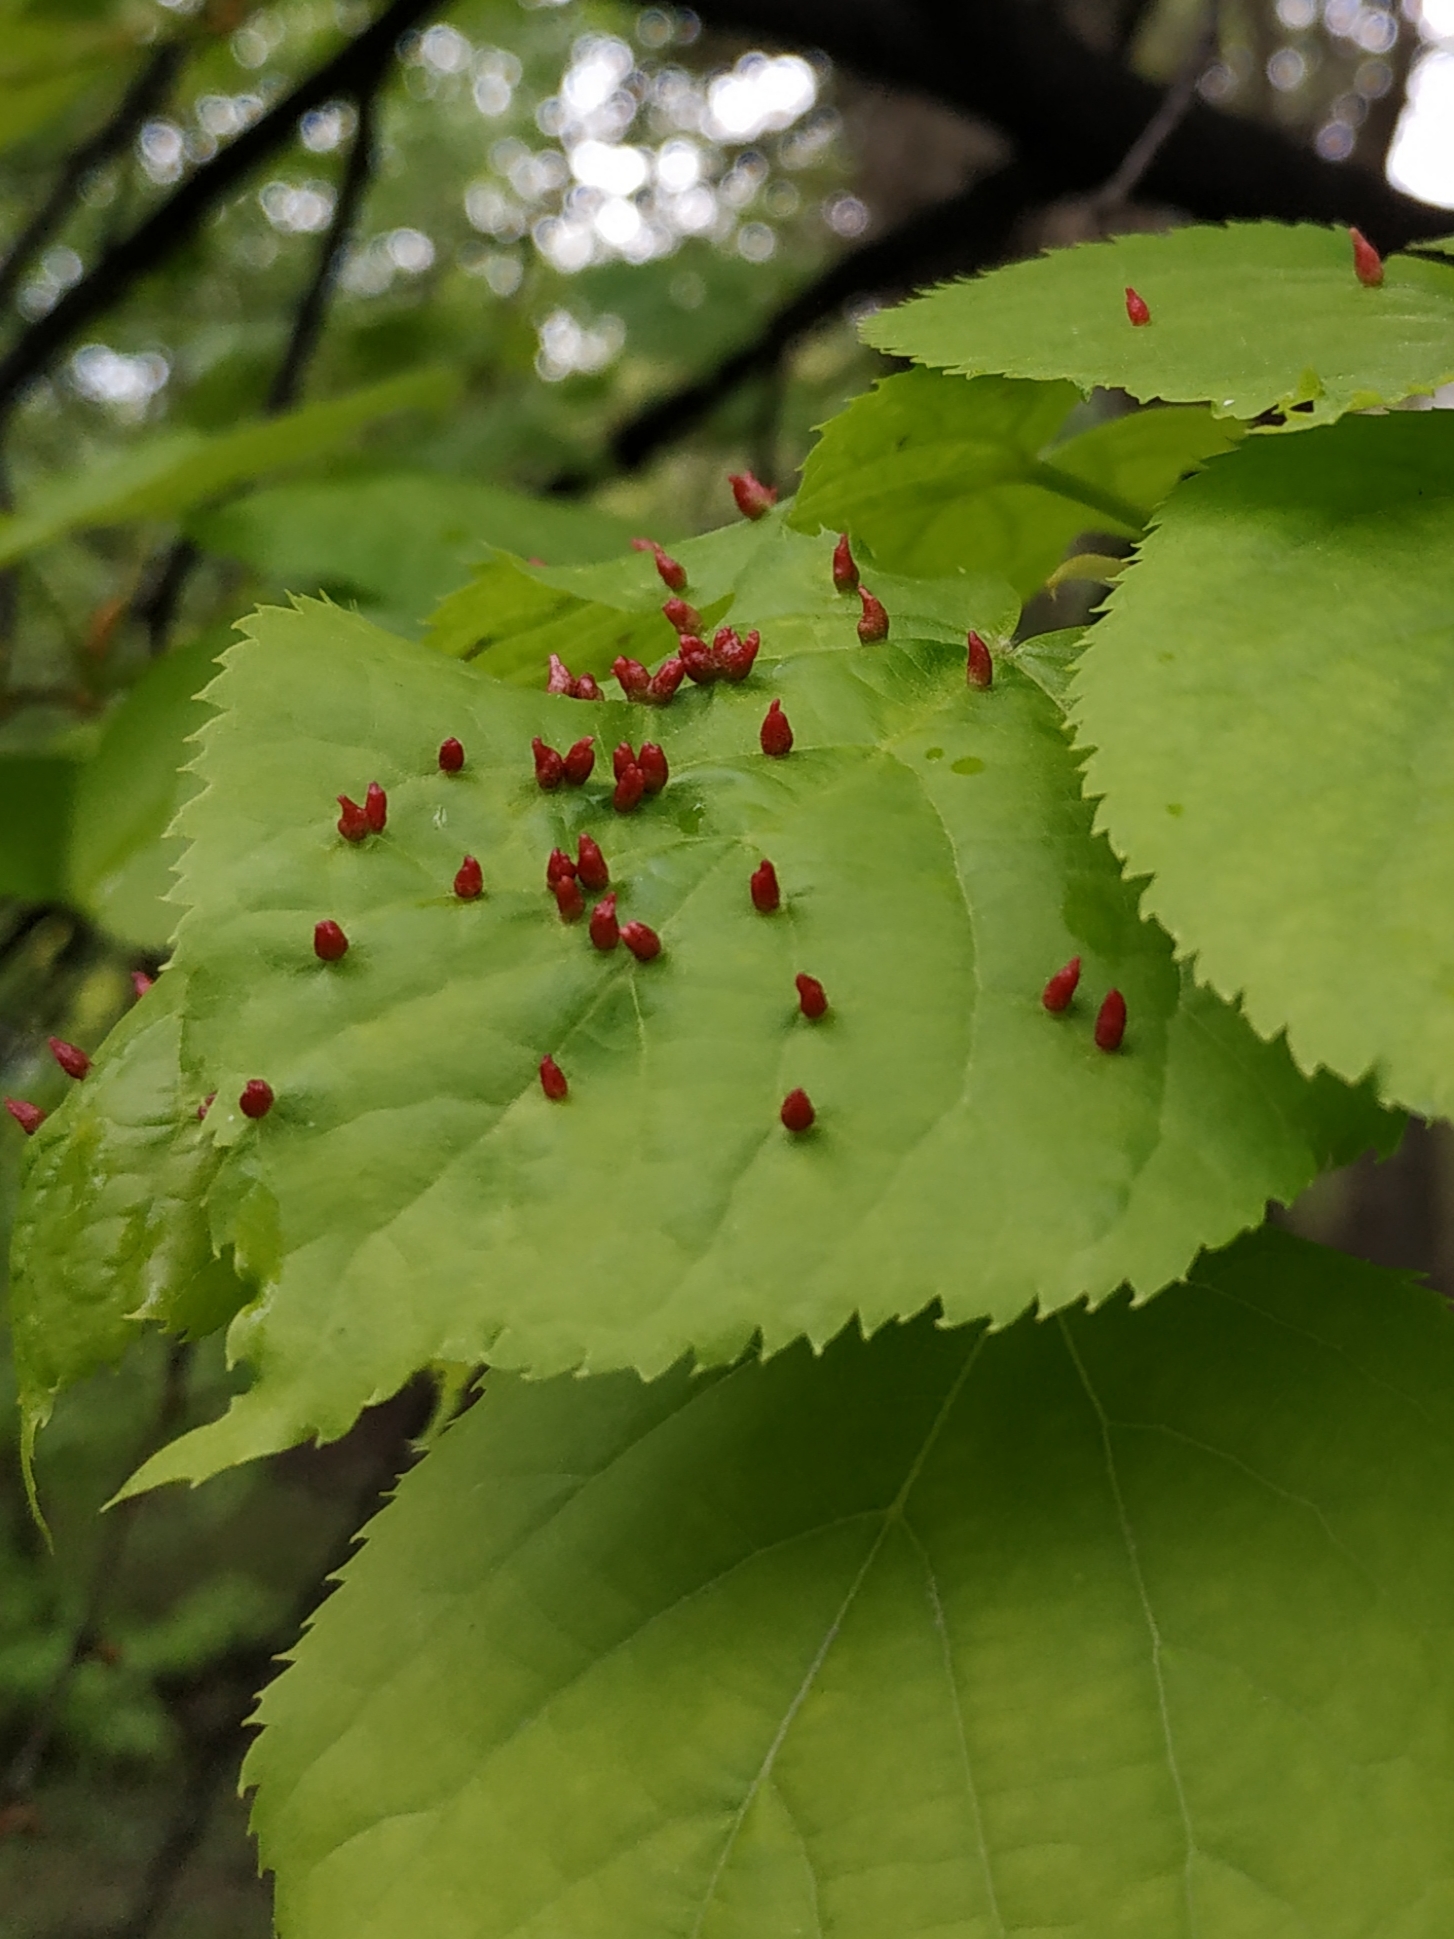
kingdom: Animalia
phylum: Arthropoda
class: Arachnida
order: Trombidiformes
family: Eriophyidae
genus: Eriophyes
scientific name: Eriophyes tiliae
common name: Red nail gall mite
